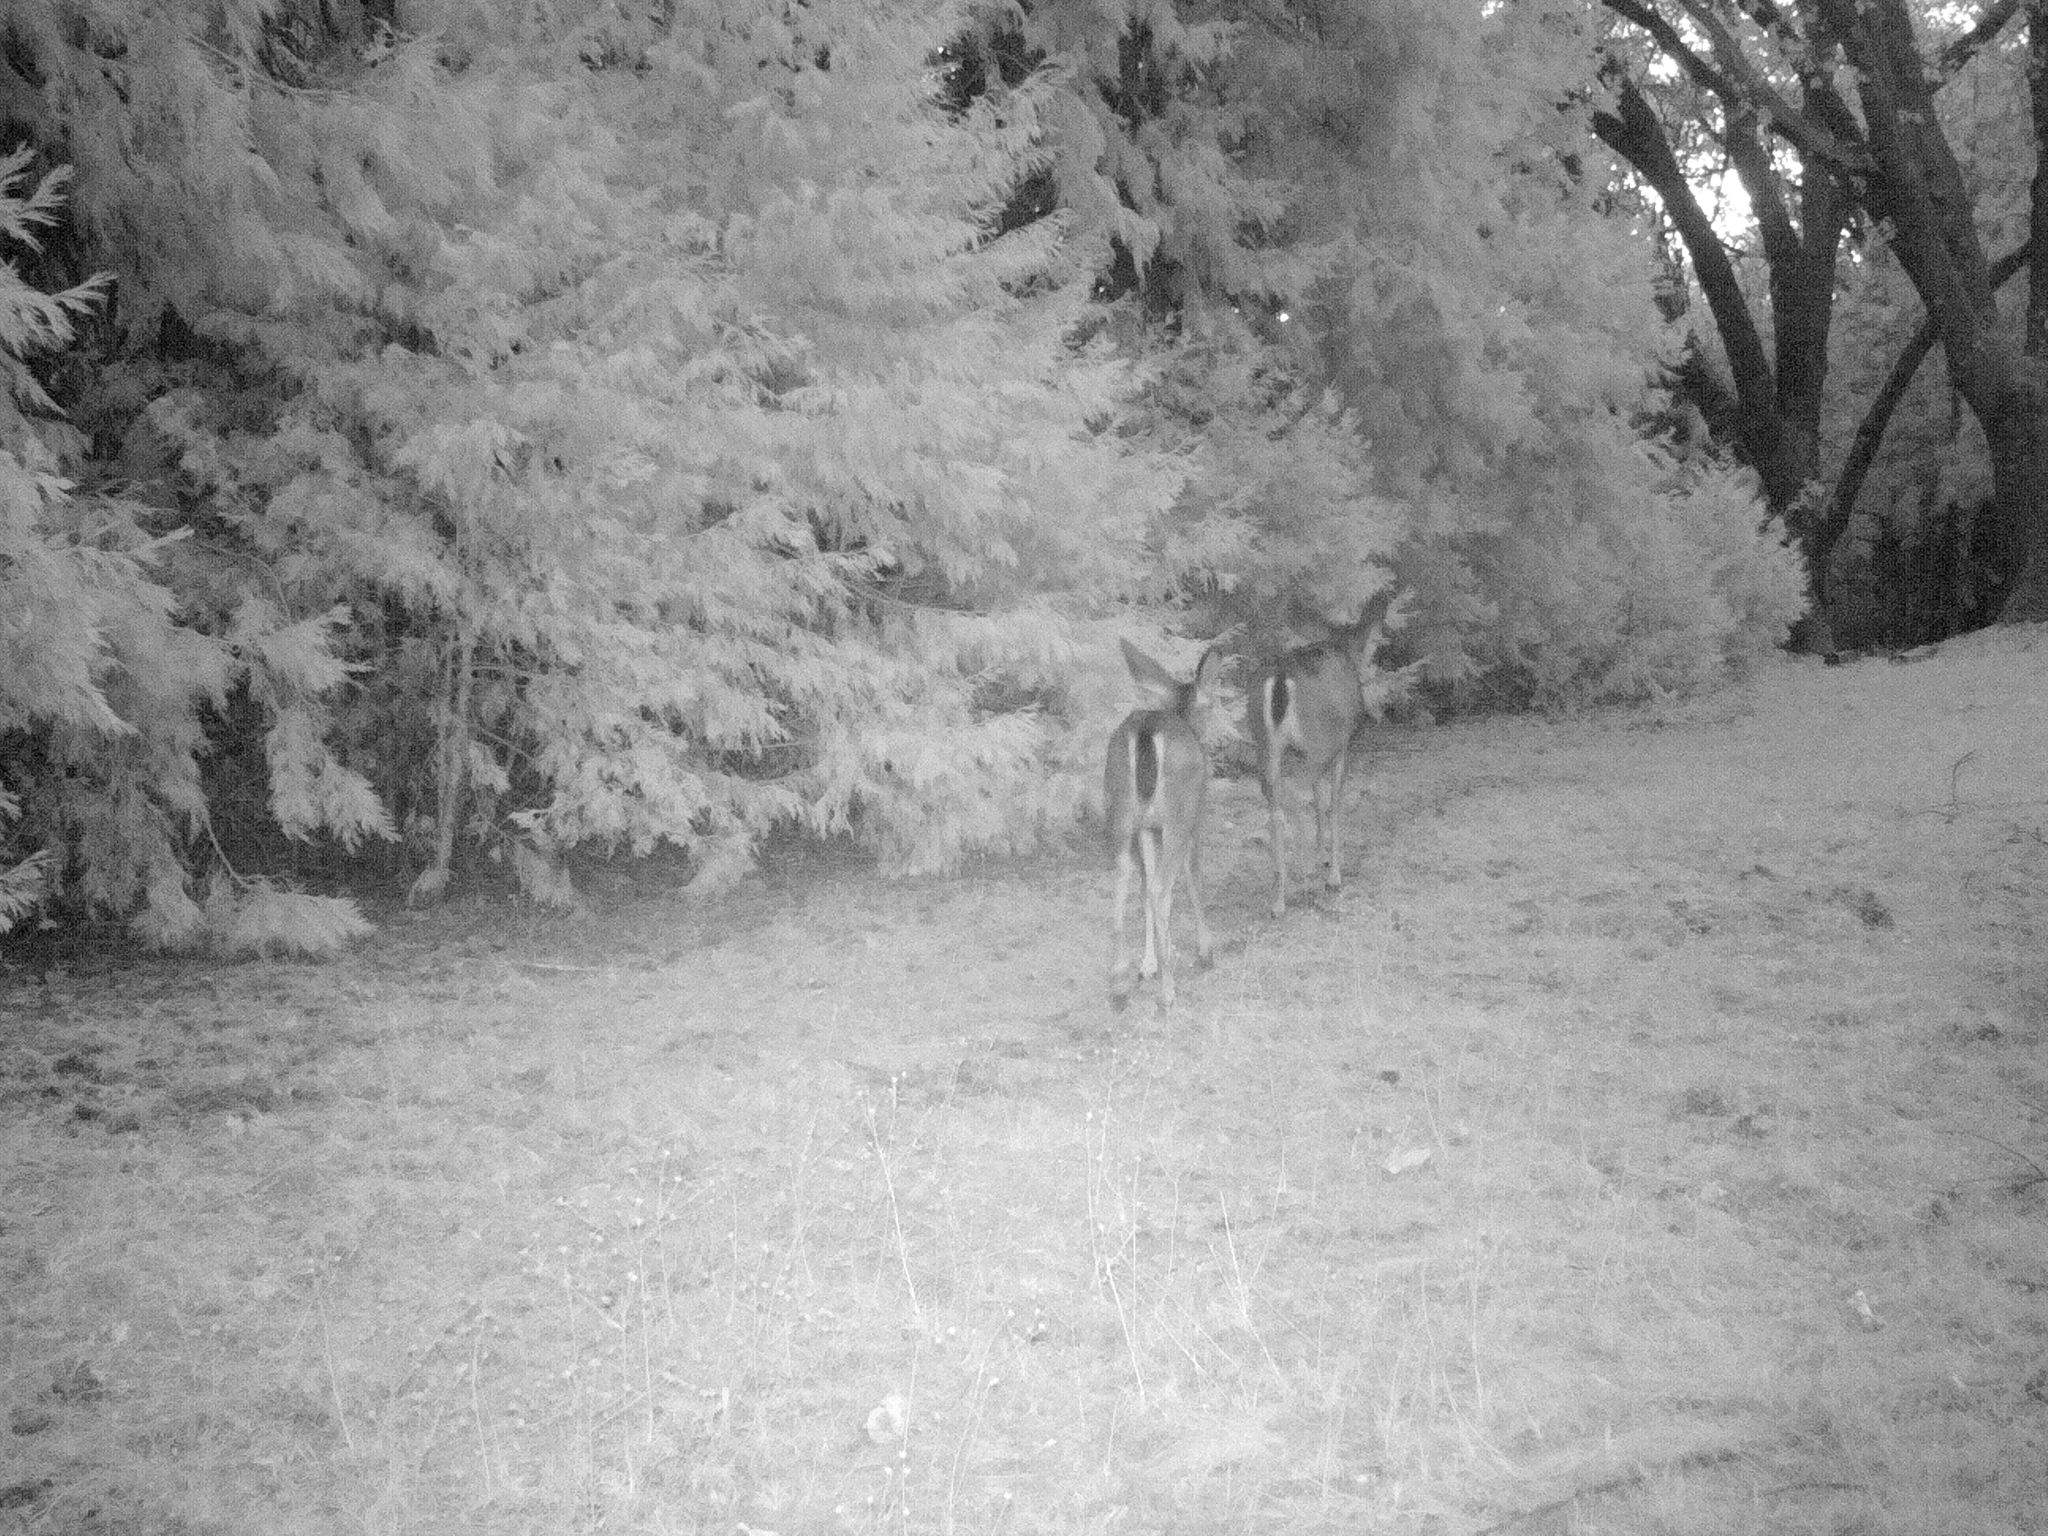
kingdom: Animalia
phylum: Chordata
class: Mammalia
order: Artiodactyla
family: Cervidae
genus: Odocoileus
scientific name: Odocoileus hemionus
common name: Mule deer
